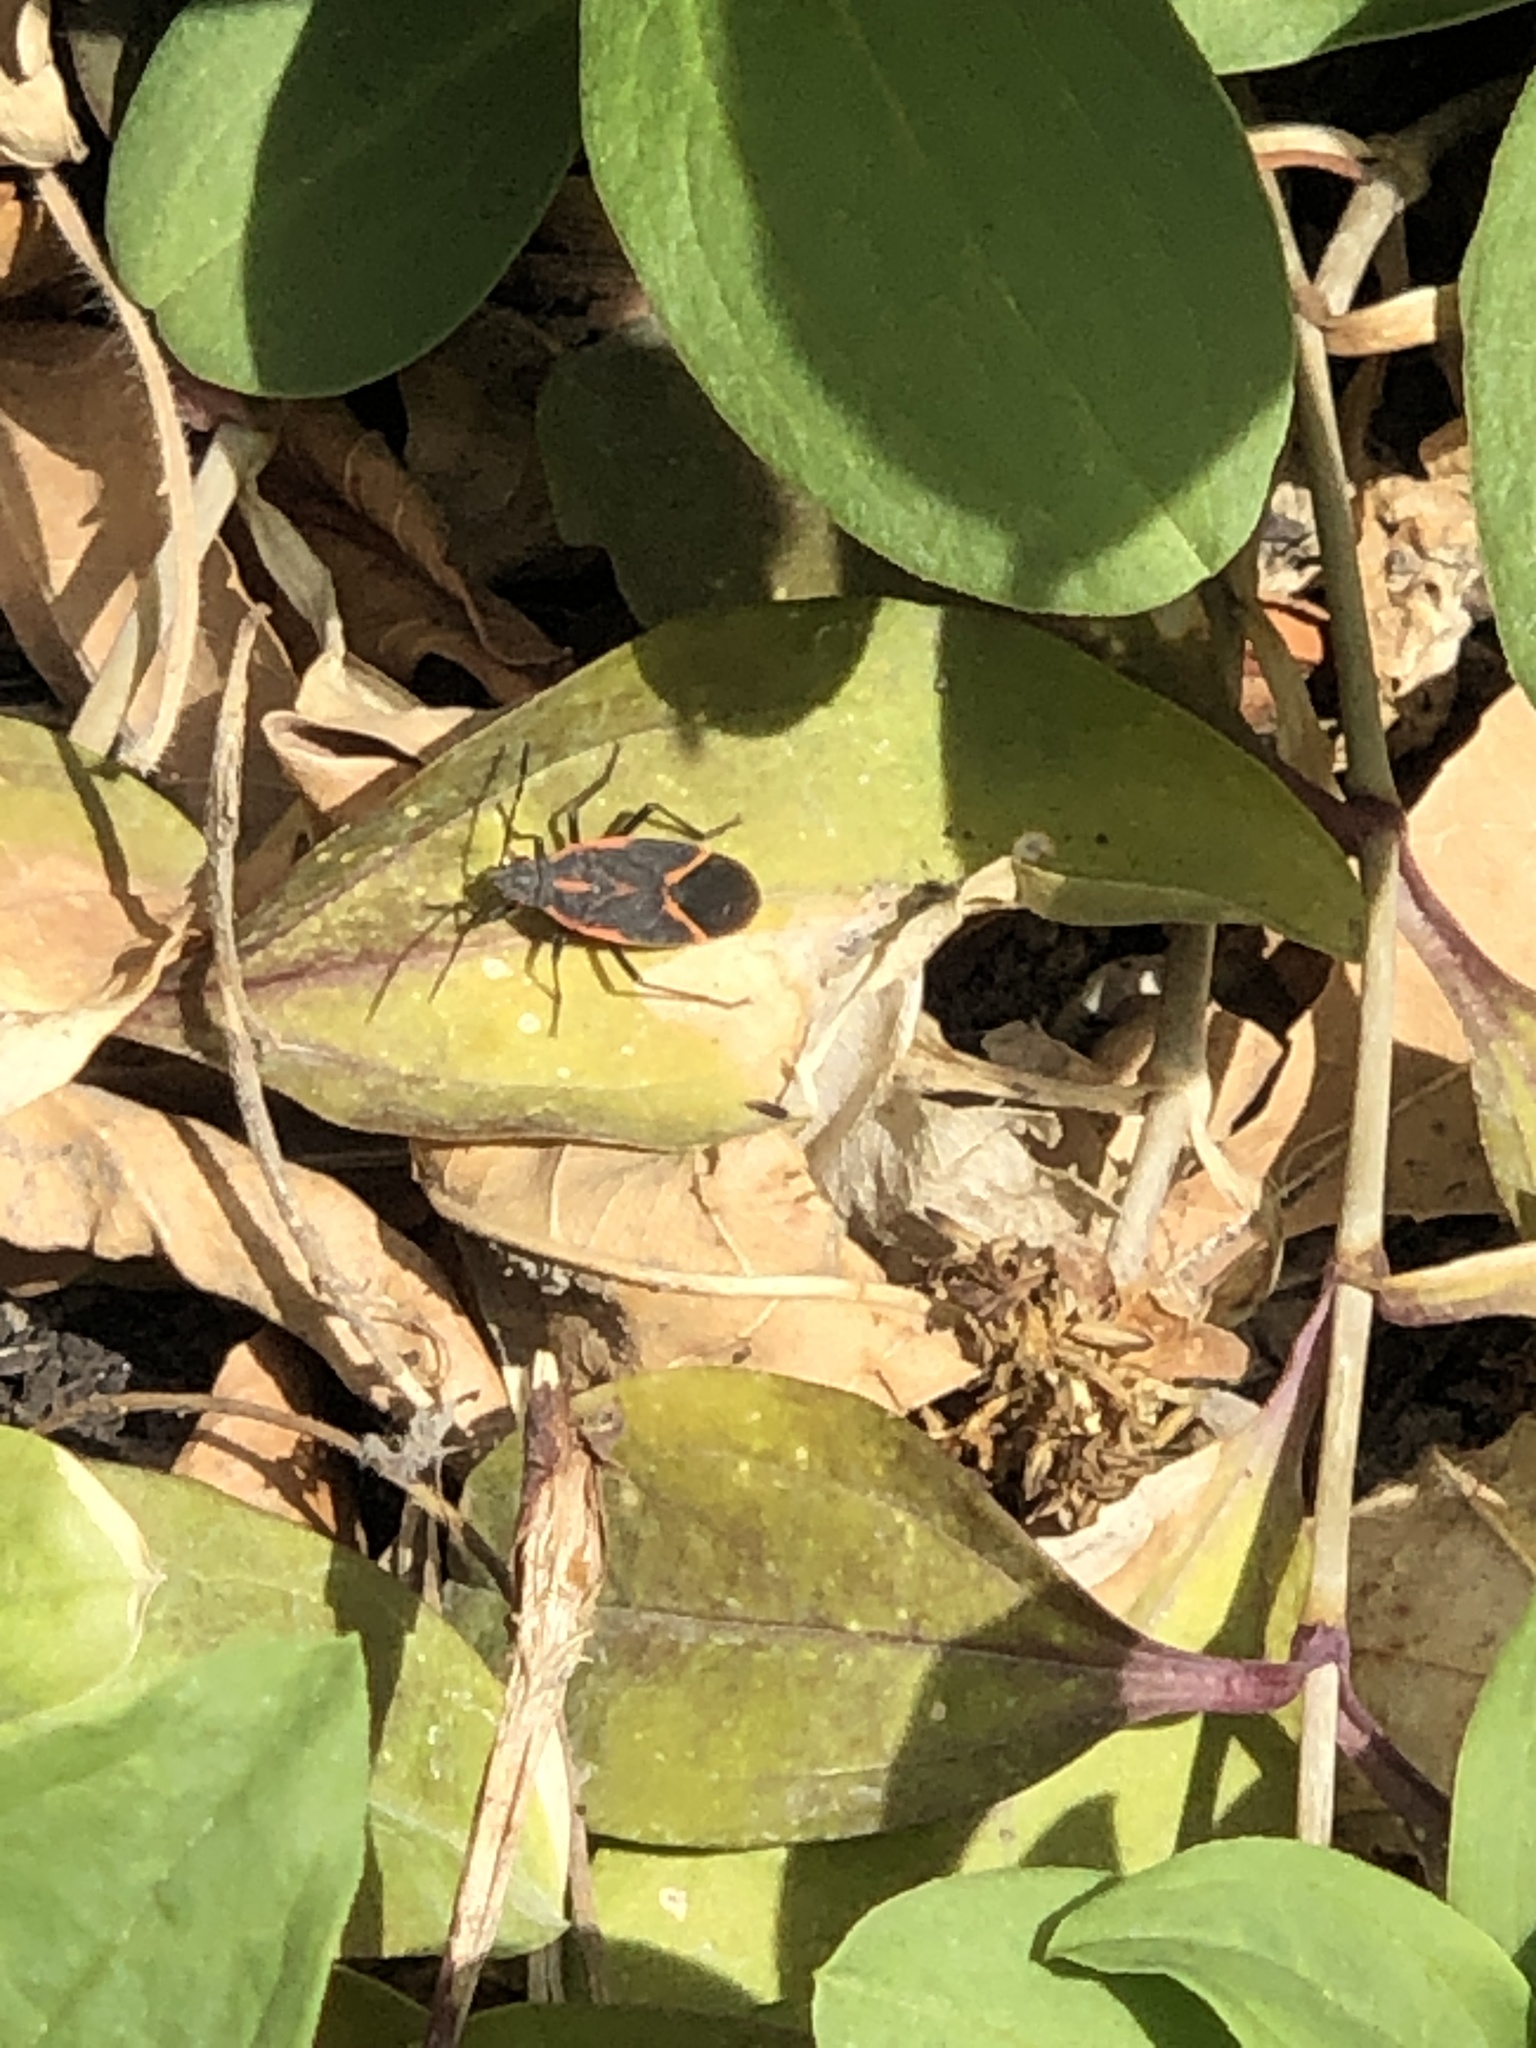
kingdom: Animalia
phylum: Arthropoda
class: Insecta
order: Hemiptera
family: Rhopalidae
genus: Boisea
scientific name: Boisea trivittata
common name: Boxelder bug
